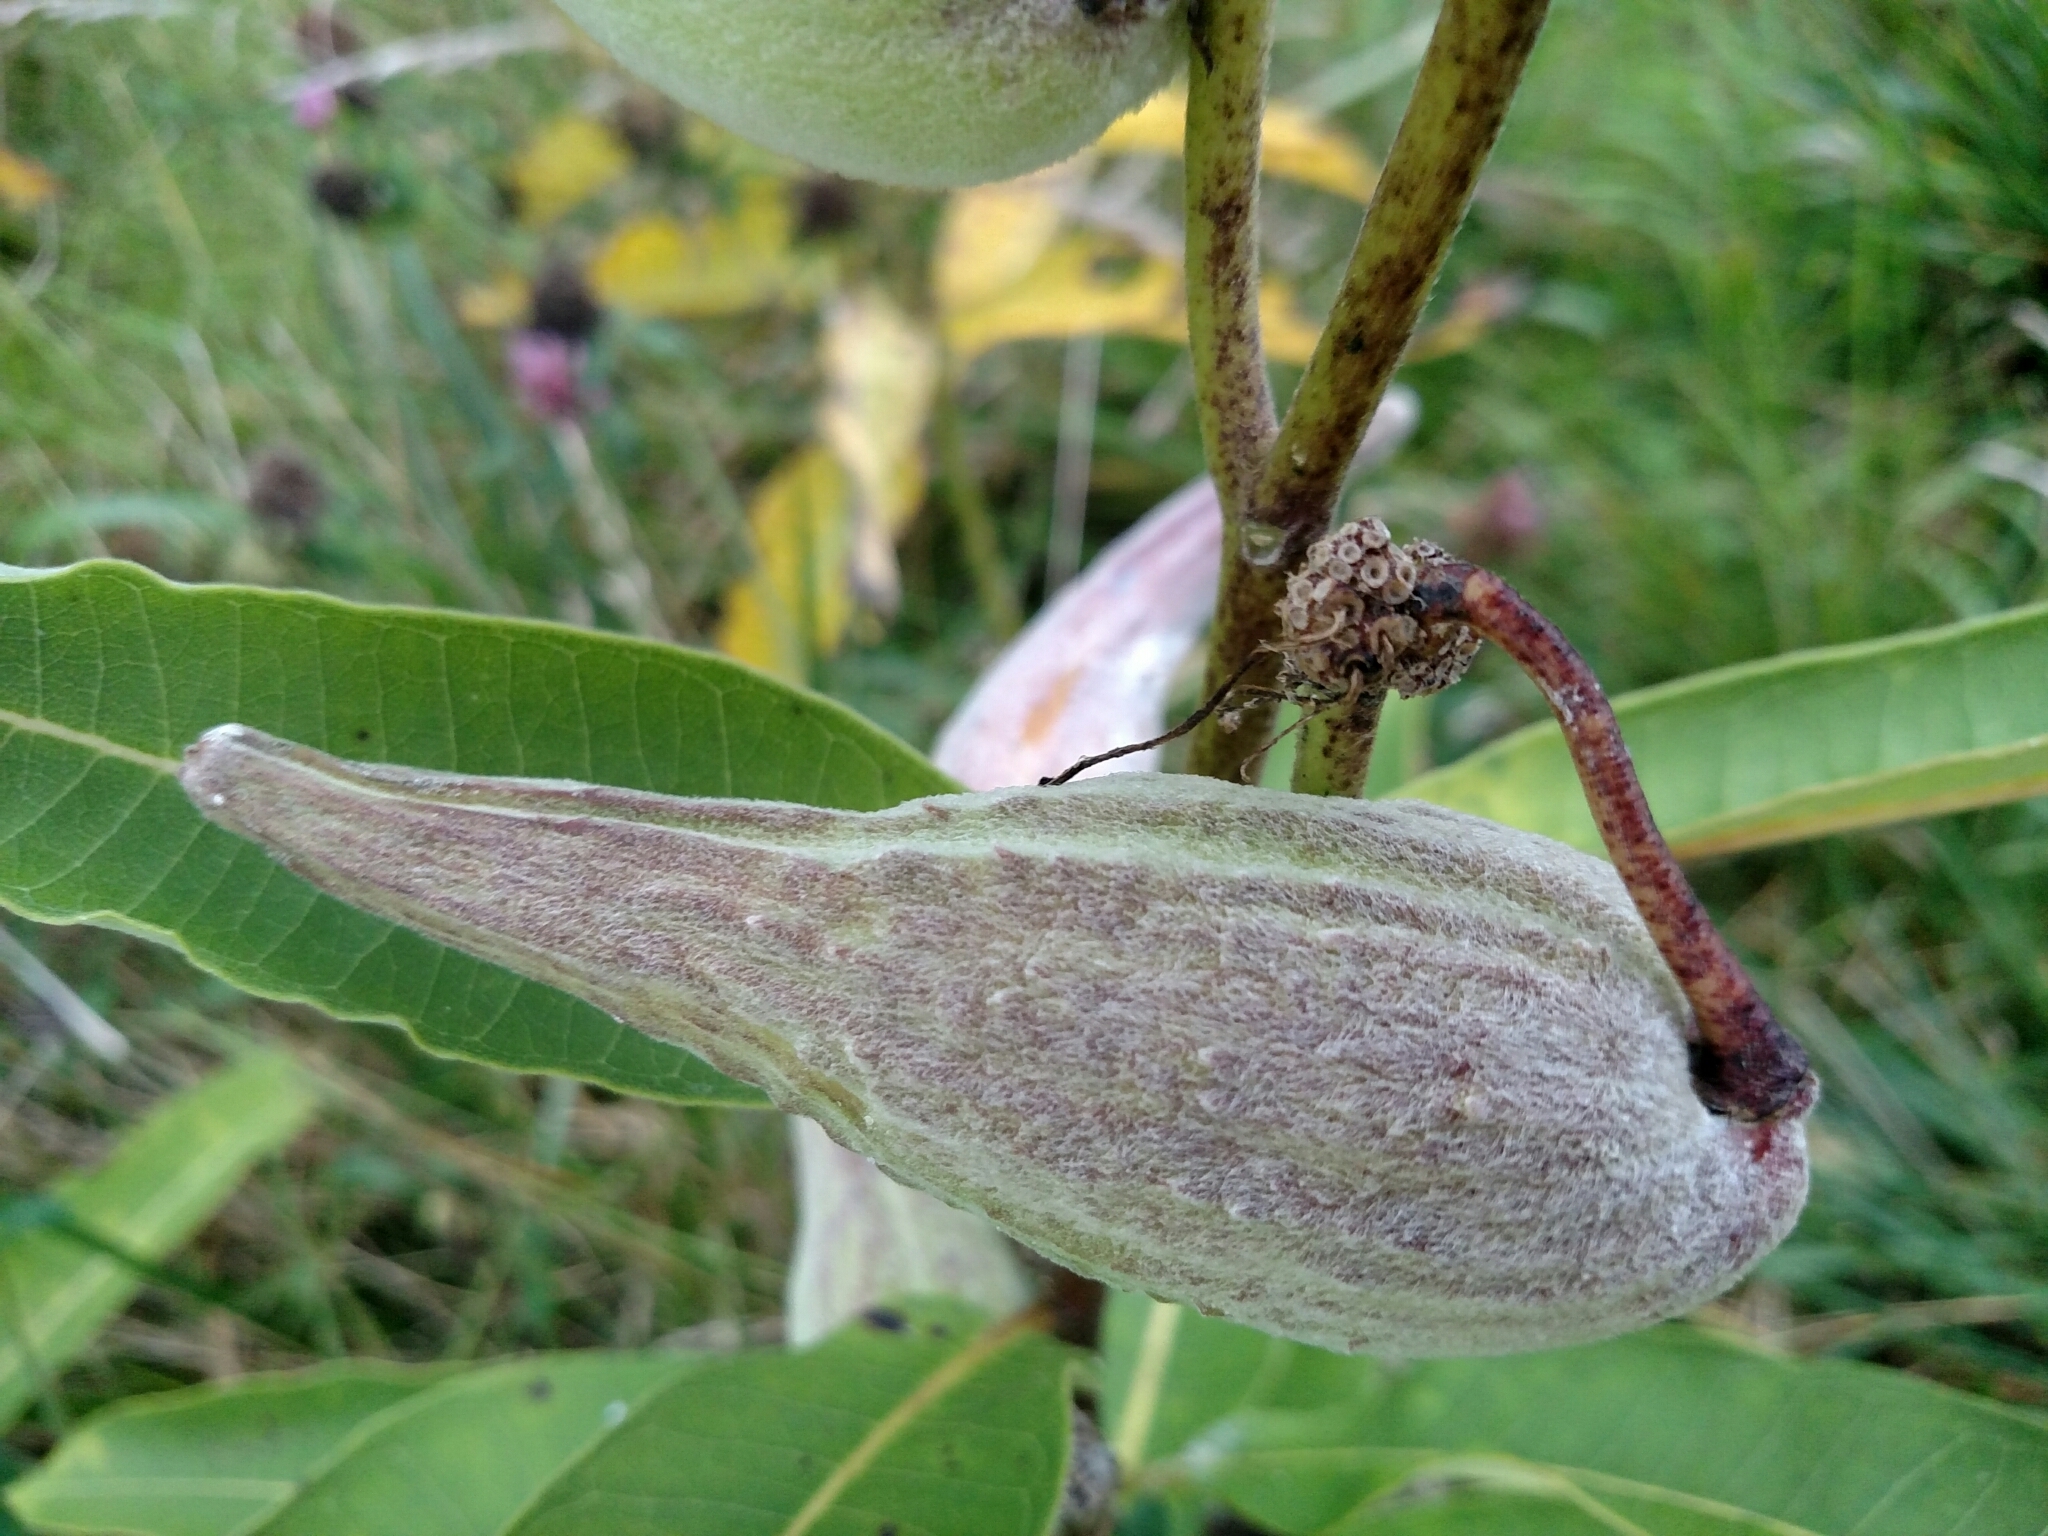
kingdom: Plantae
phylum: Tracheophyta
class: Magnoliopsida
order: Gentianales
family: Apocynaceae
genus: Asclepias
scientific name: Asclepias syriaca
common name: Common milkweed
